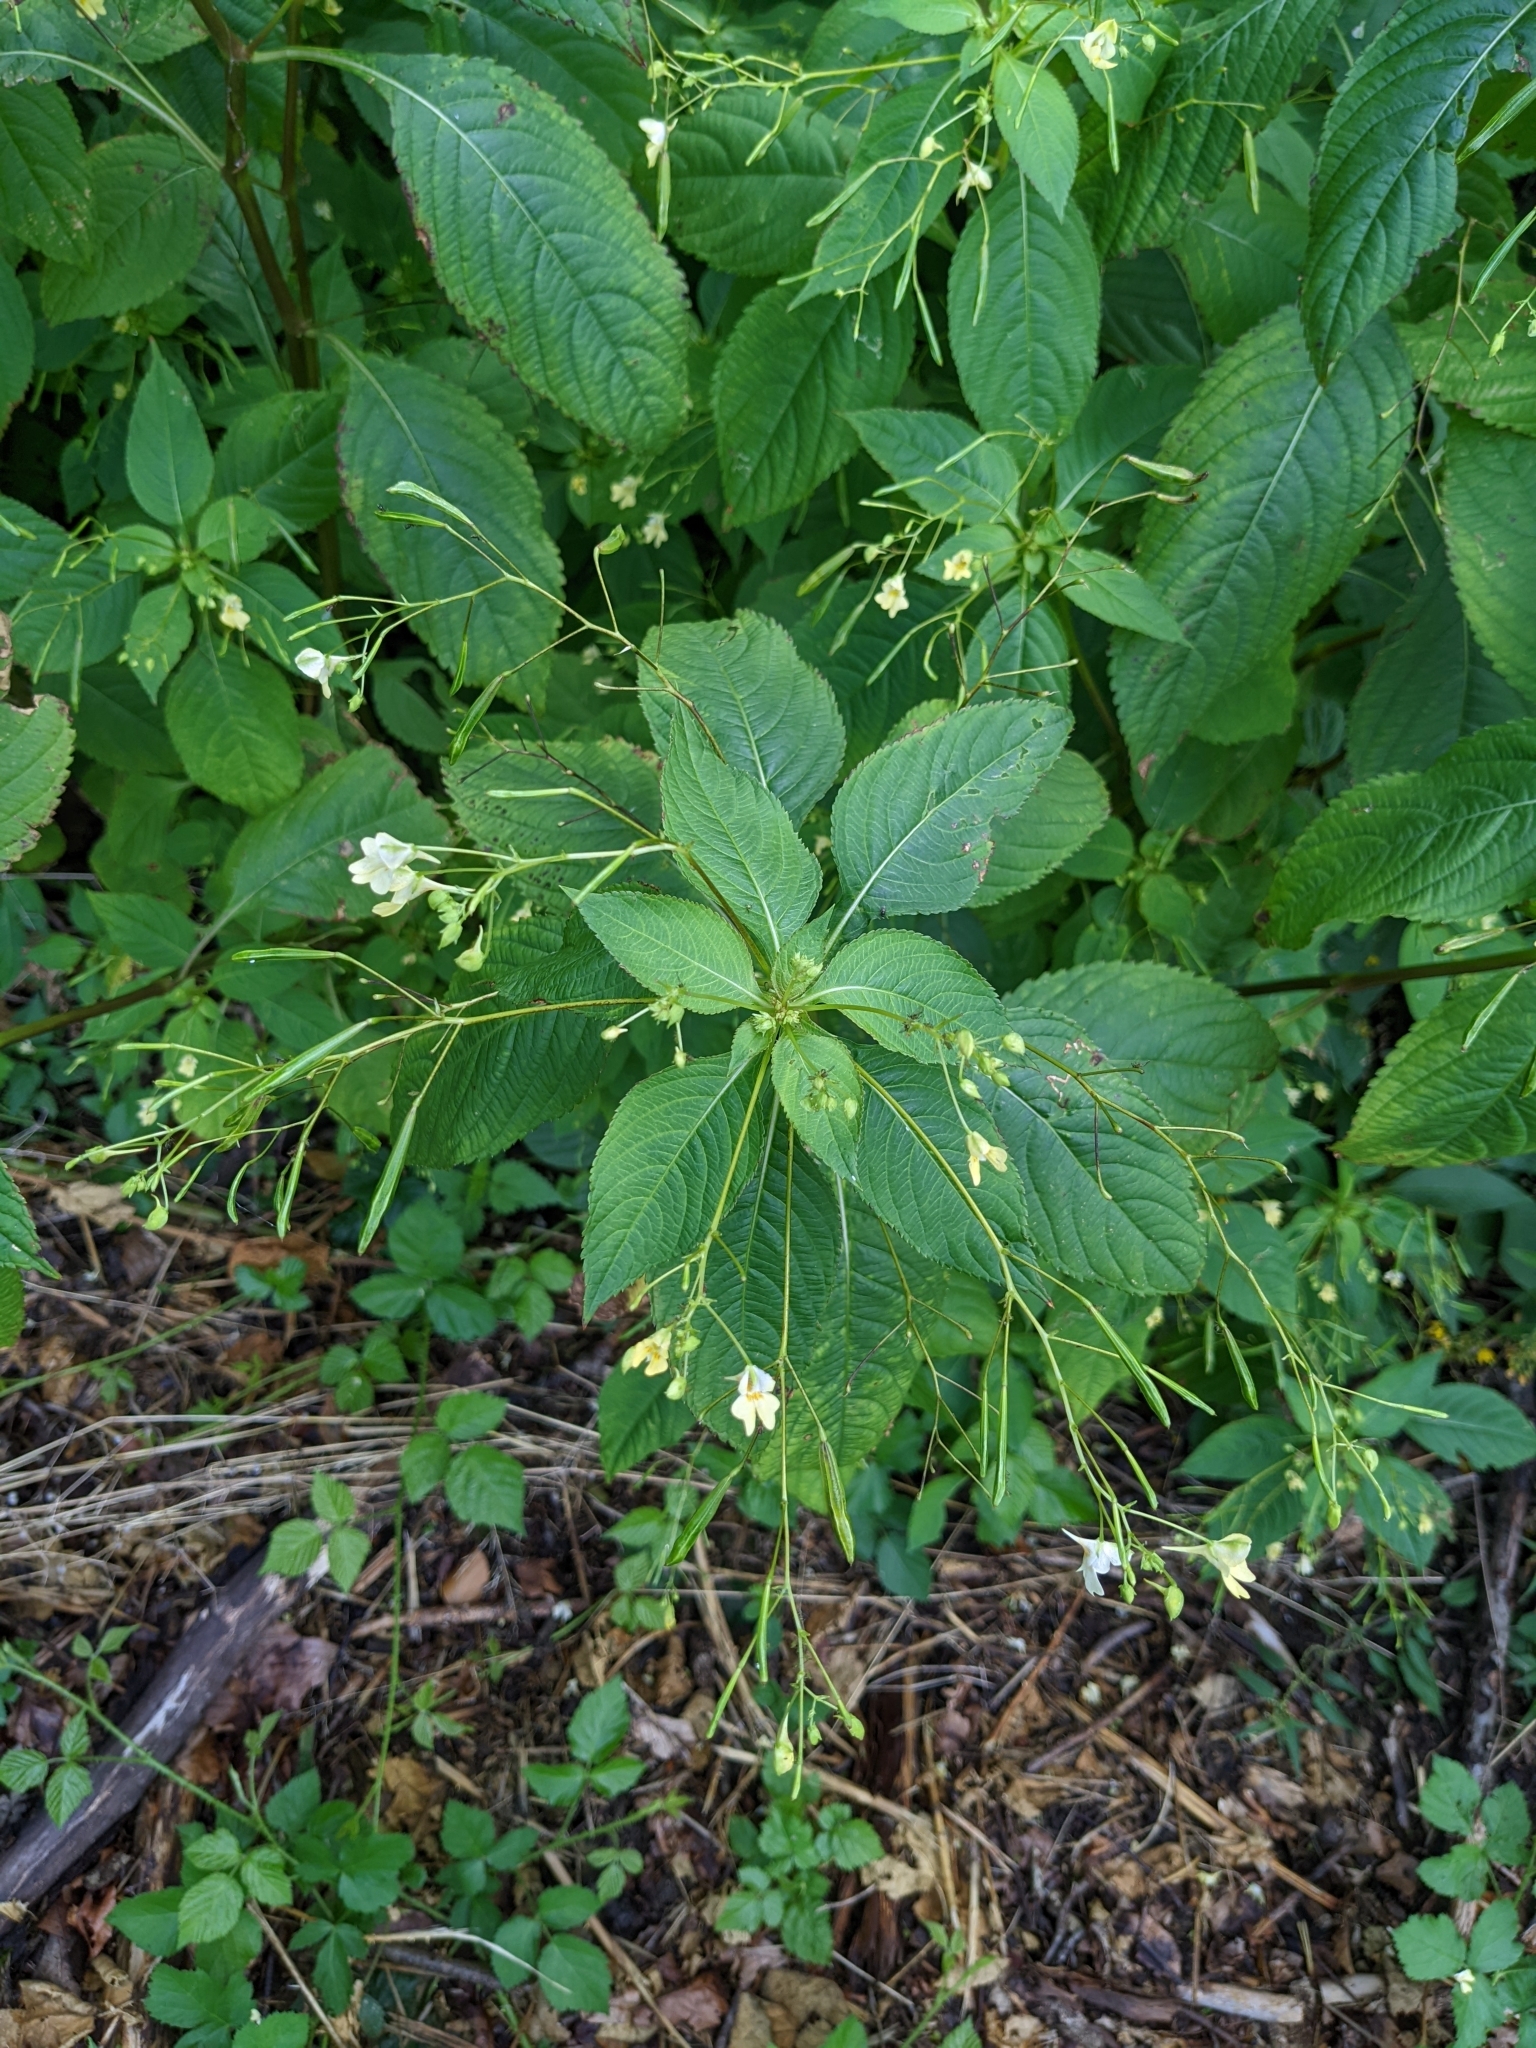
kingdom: Plantae
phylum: Tracheophyta
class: Magnoliopsida
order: Ericales
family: Balsaminaceae
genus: Impatiens
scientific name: Impatiens parviflora
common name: Small balsam
